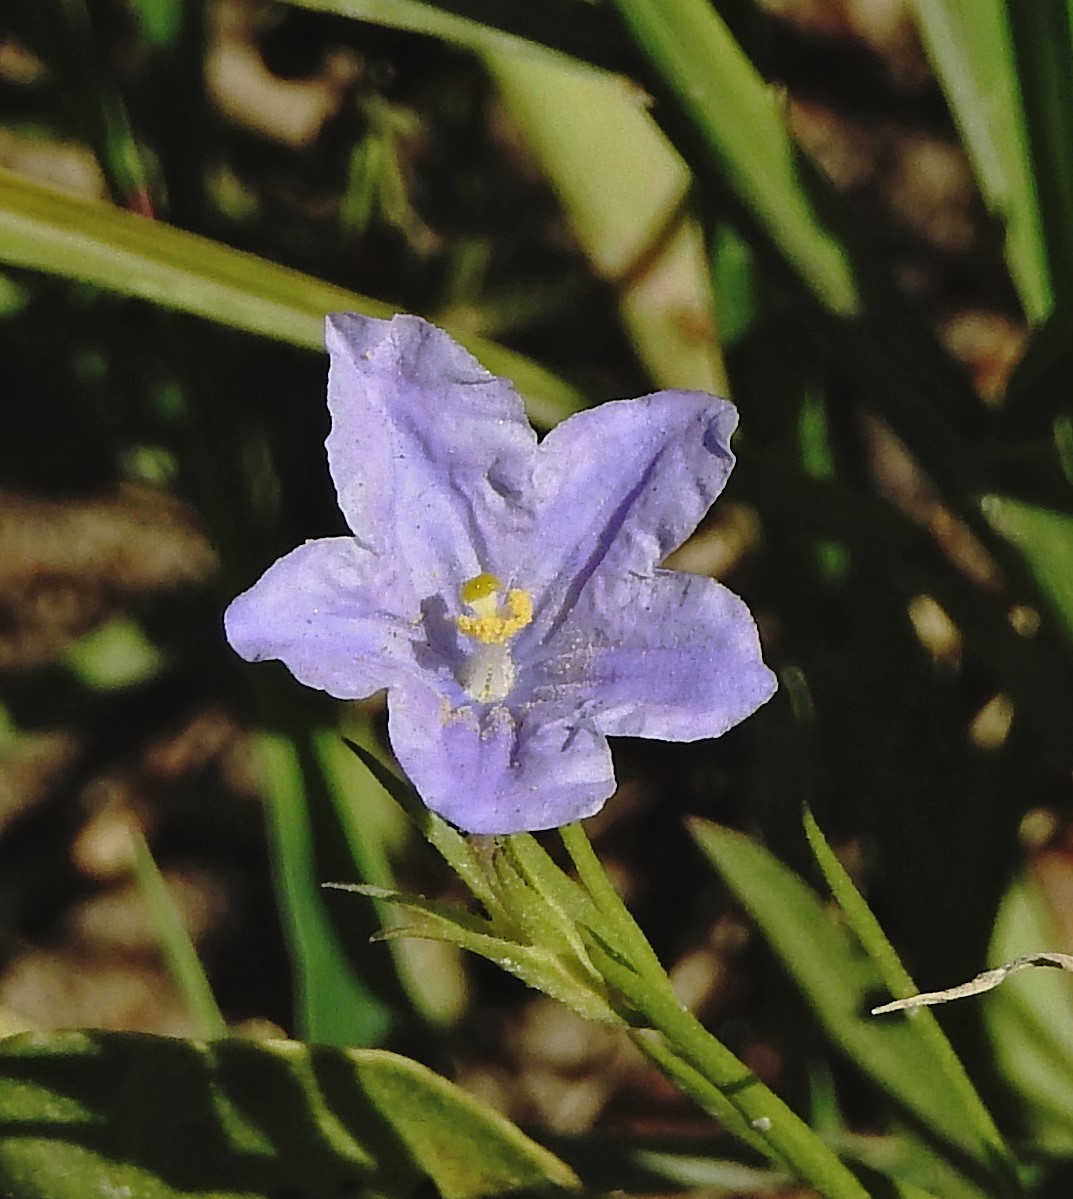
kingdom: Plantae
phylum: Tracheophyta
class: Magnoliopsida
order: Solanales
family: Solanaceae
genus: Nierembergia
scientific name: Nierembergia aristata
